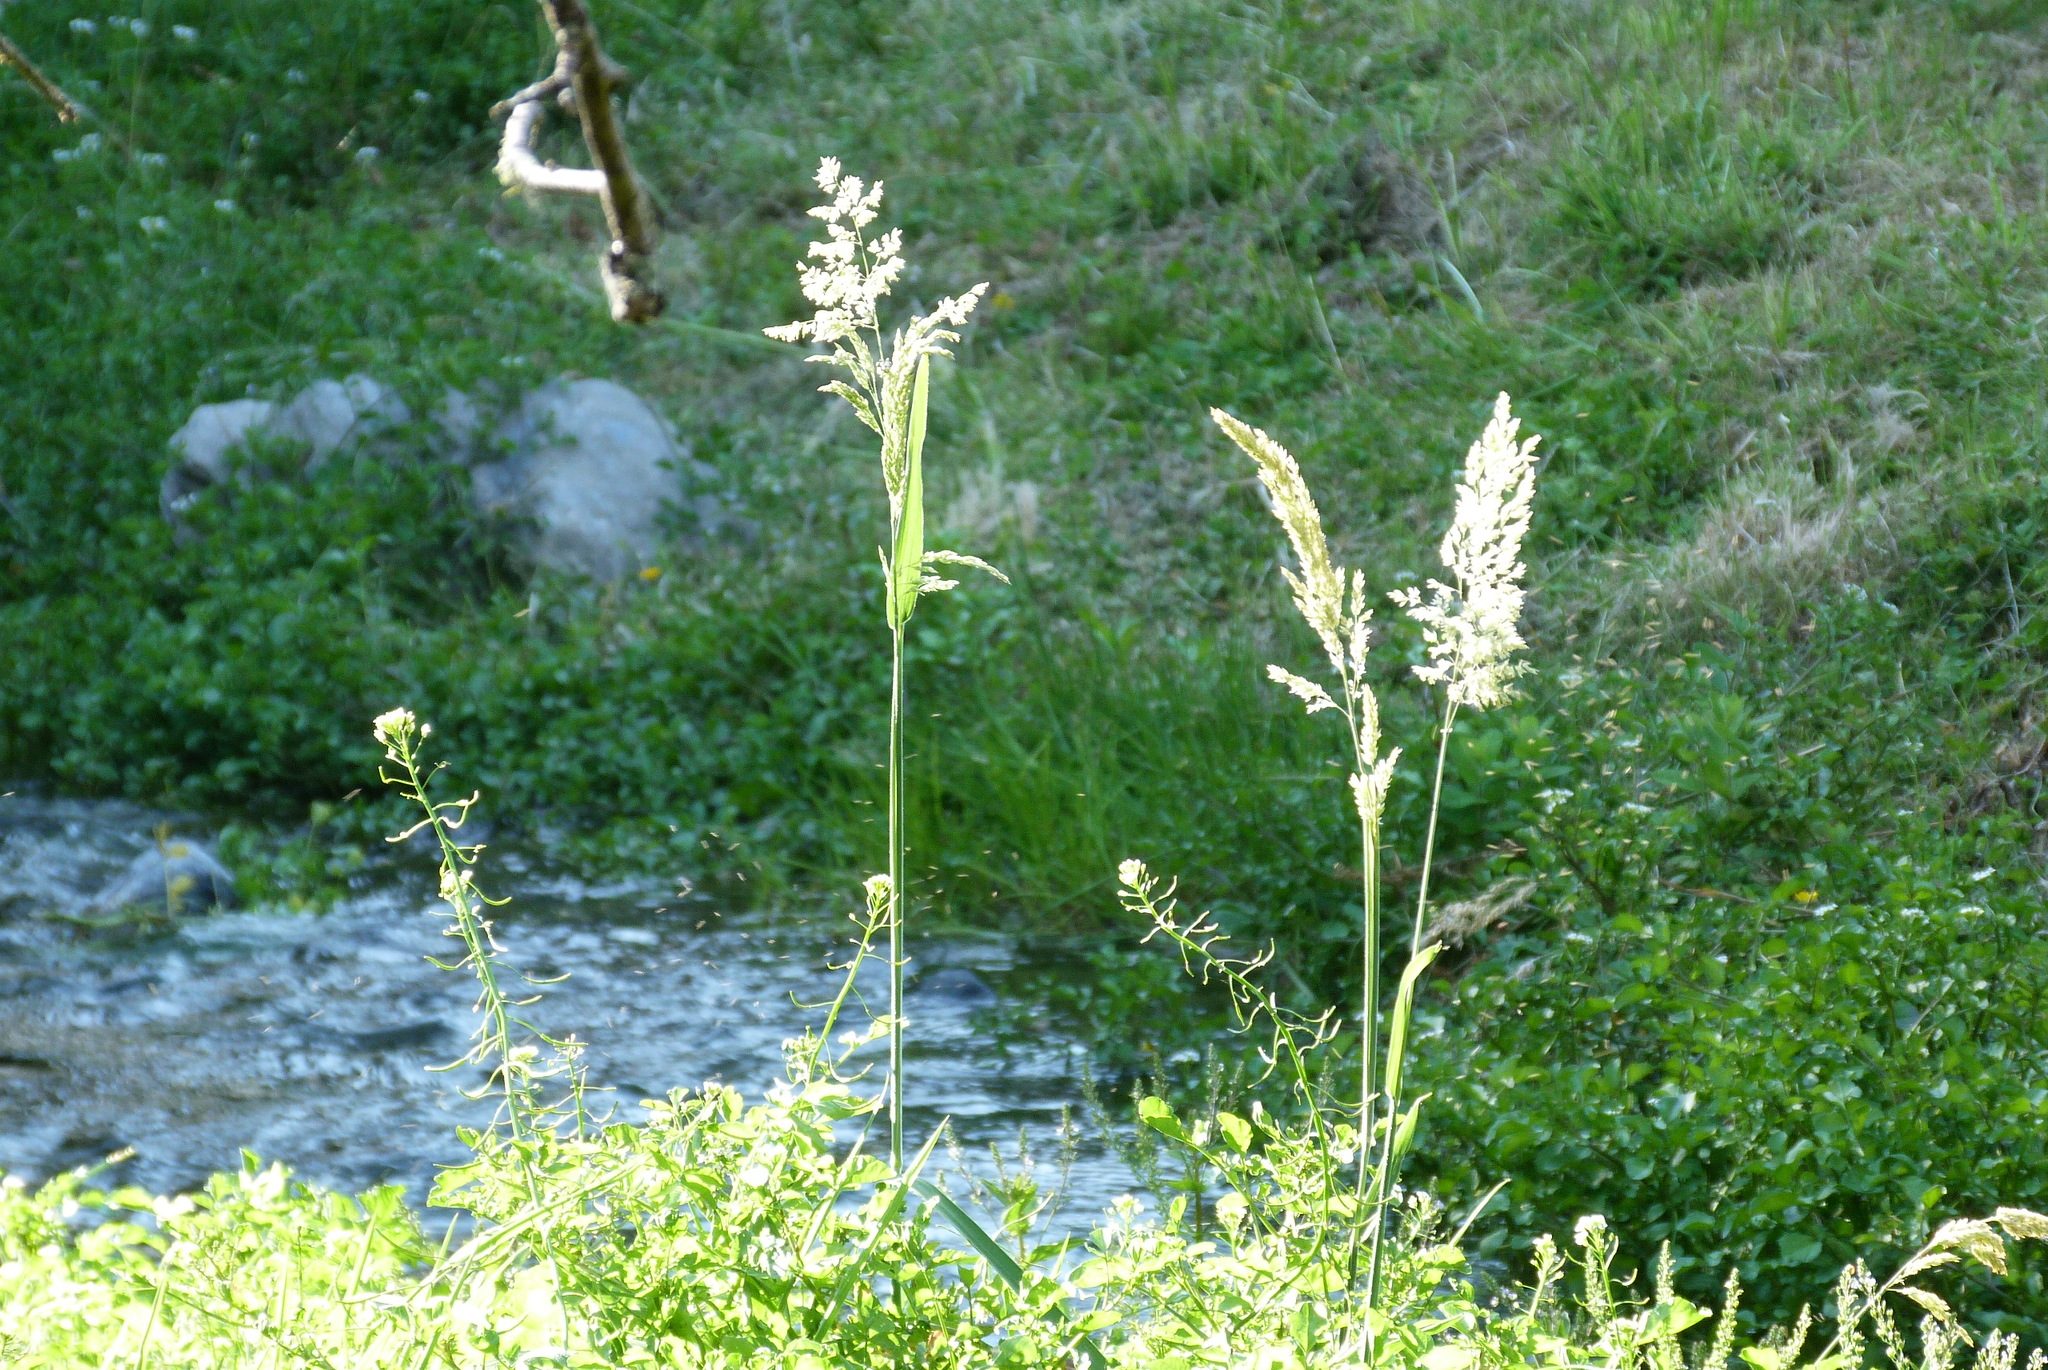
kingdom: Plantae
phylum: Tracheophyta
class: Liliopsida
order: Poales
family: Poaceae
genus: Holcus
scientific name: Holcus lanatus
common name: Yorkshire-fog
